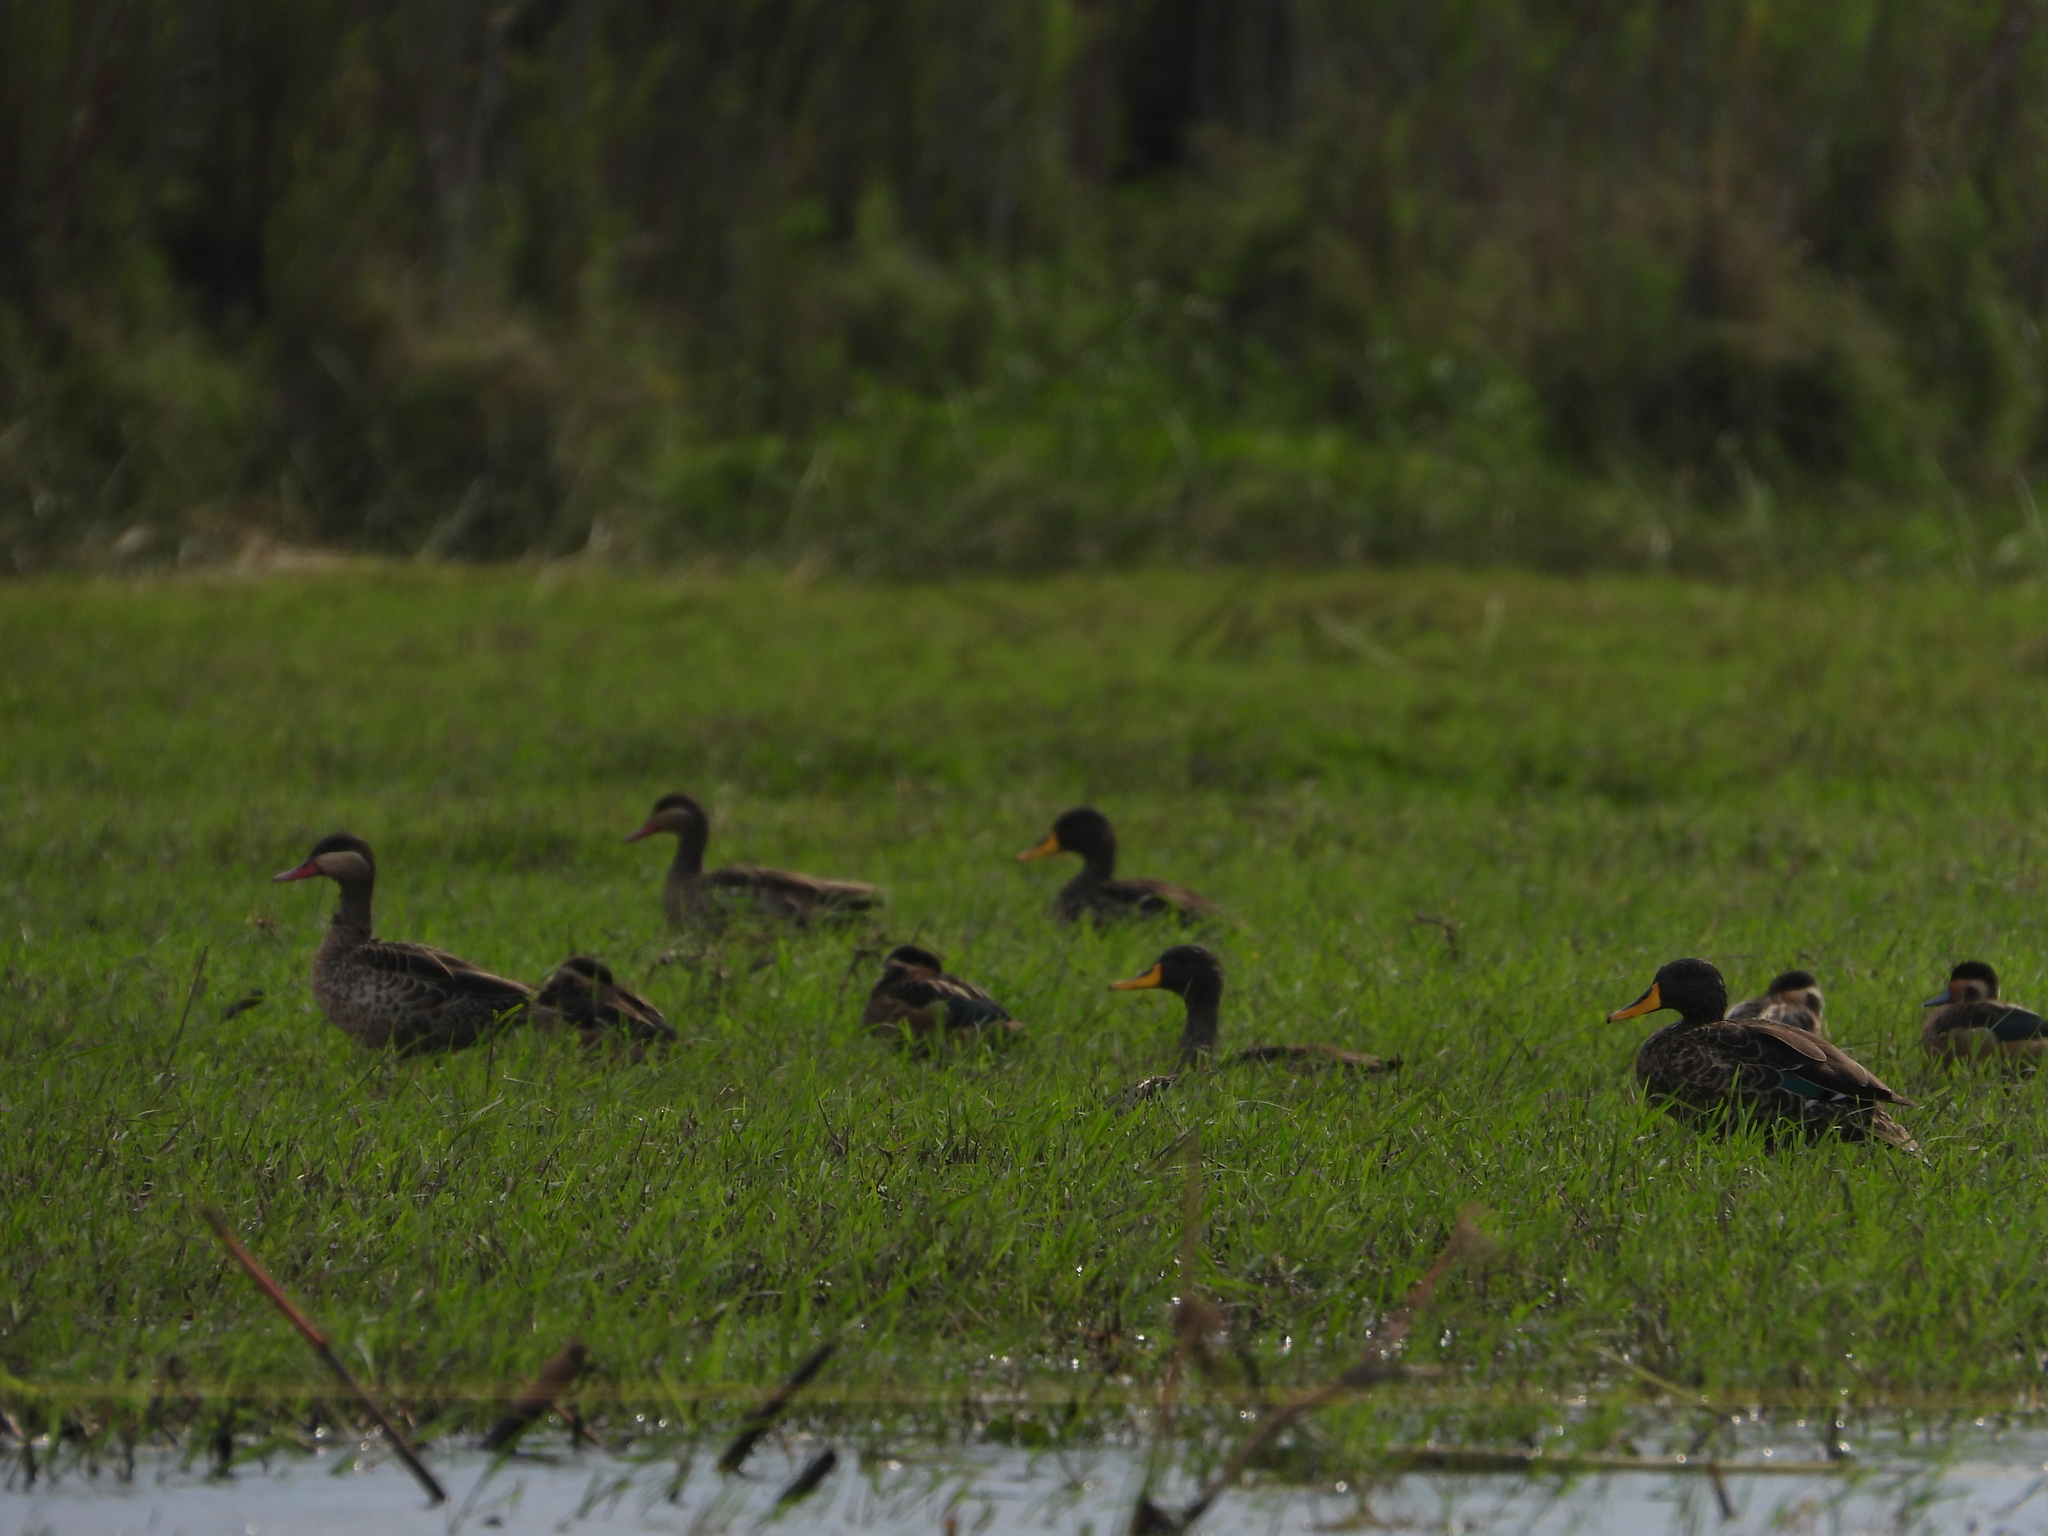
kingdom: Animalia
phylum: Chordata
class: Aves
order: Anseriformes
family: Anatidae
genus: Anas
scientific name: Anas undulata
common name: Yellow-billed duck
